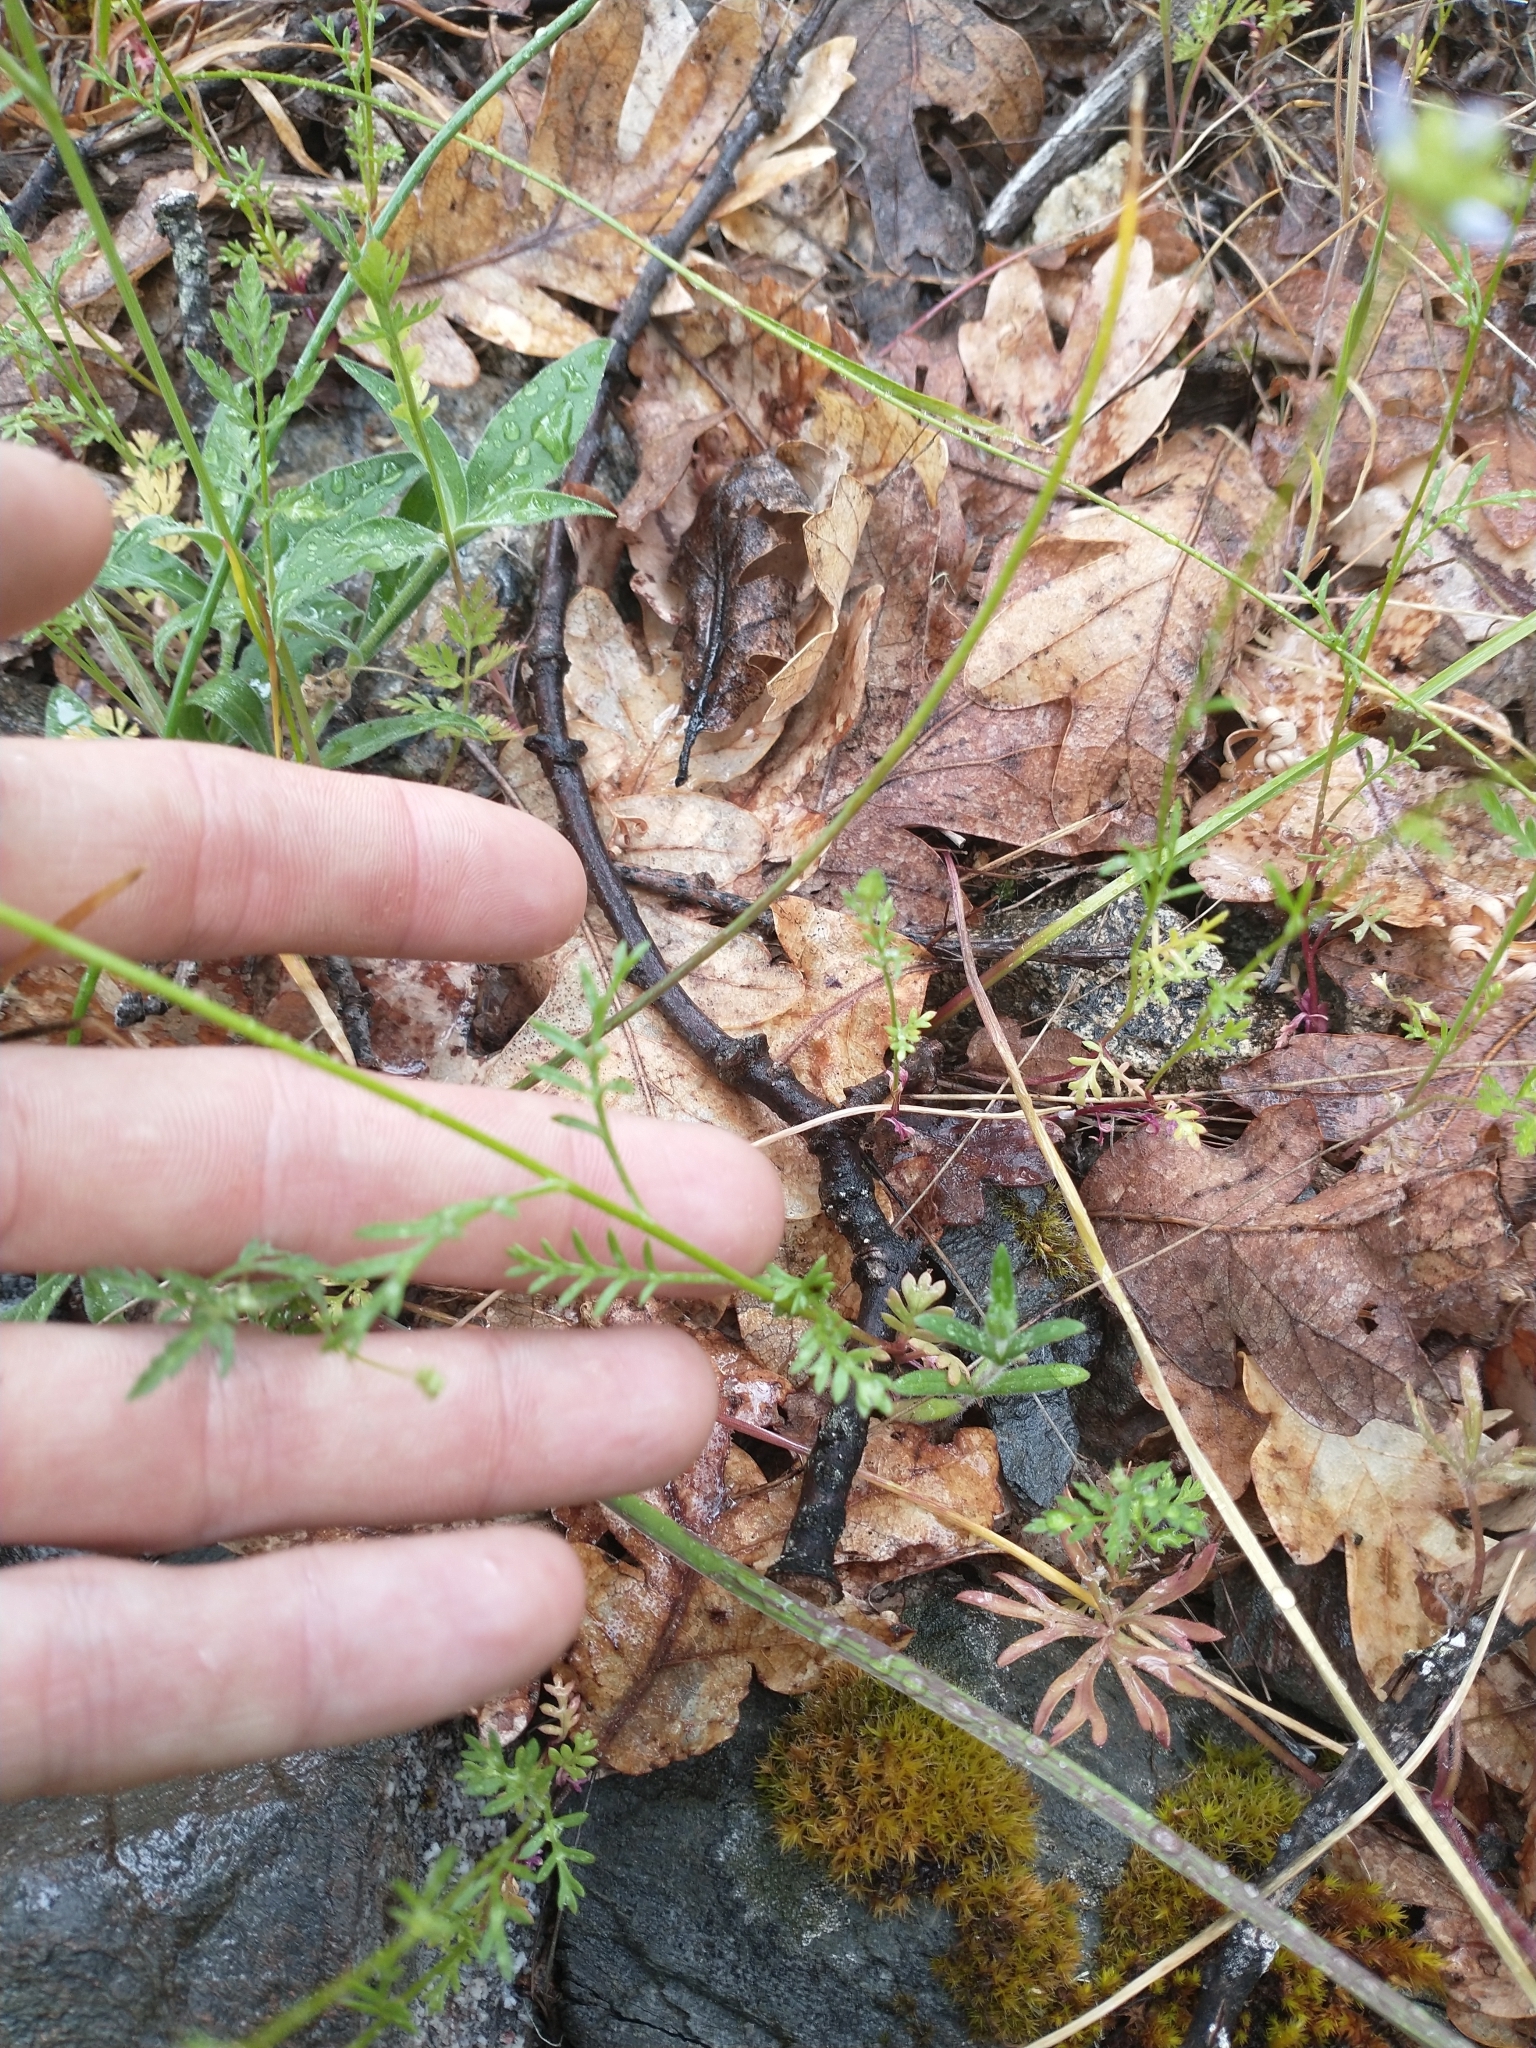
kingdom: Plantae
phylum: Tracheophyta
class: Magnoliopsida
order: Ericales
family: Polemoniaceae
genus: Gilia
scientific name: Gilia capitata
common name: Bluehead gilia
